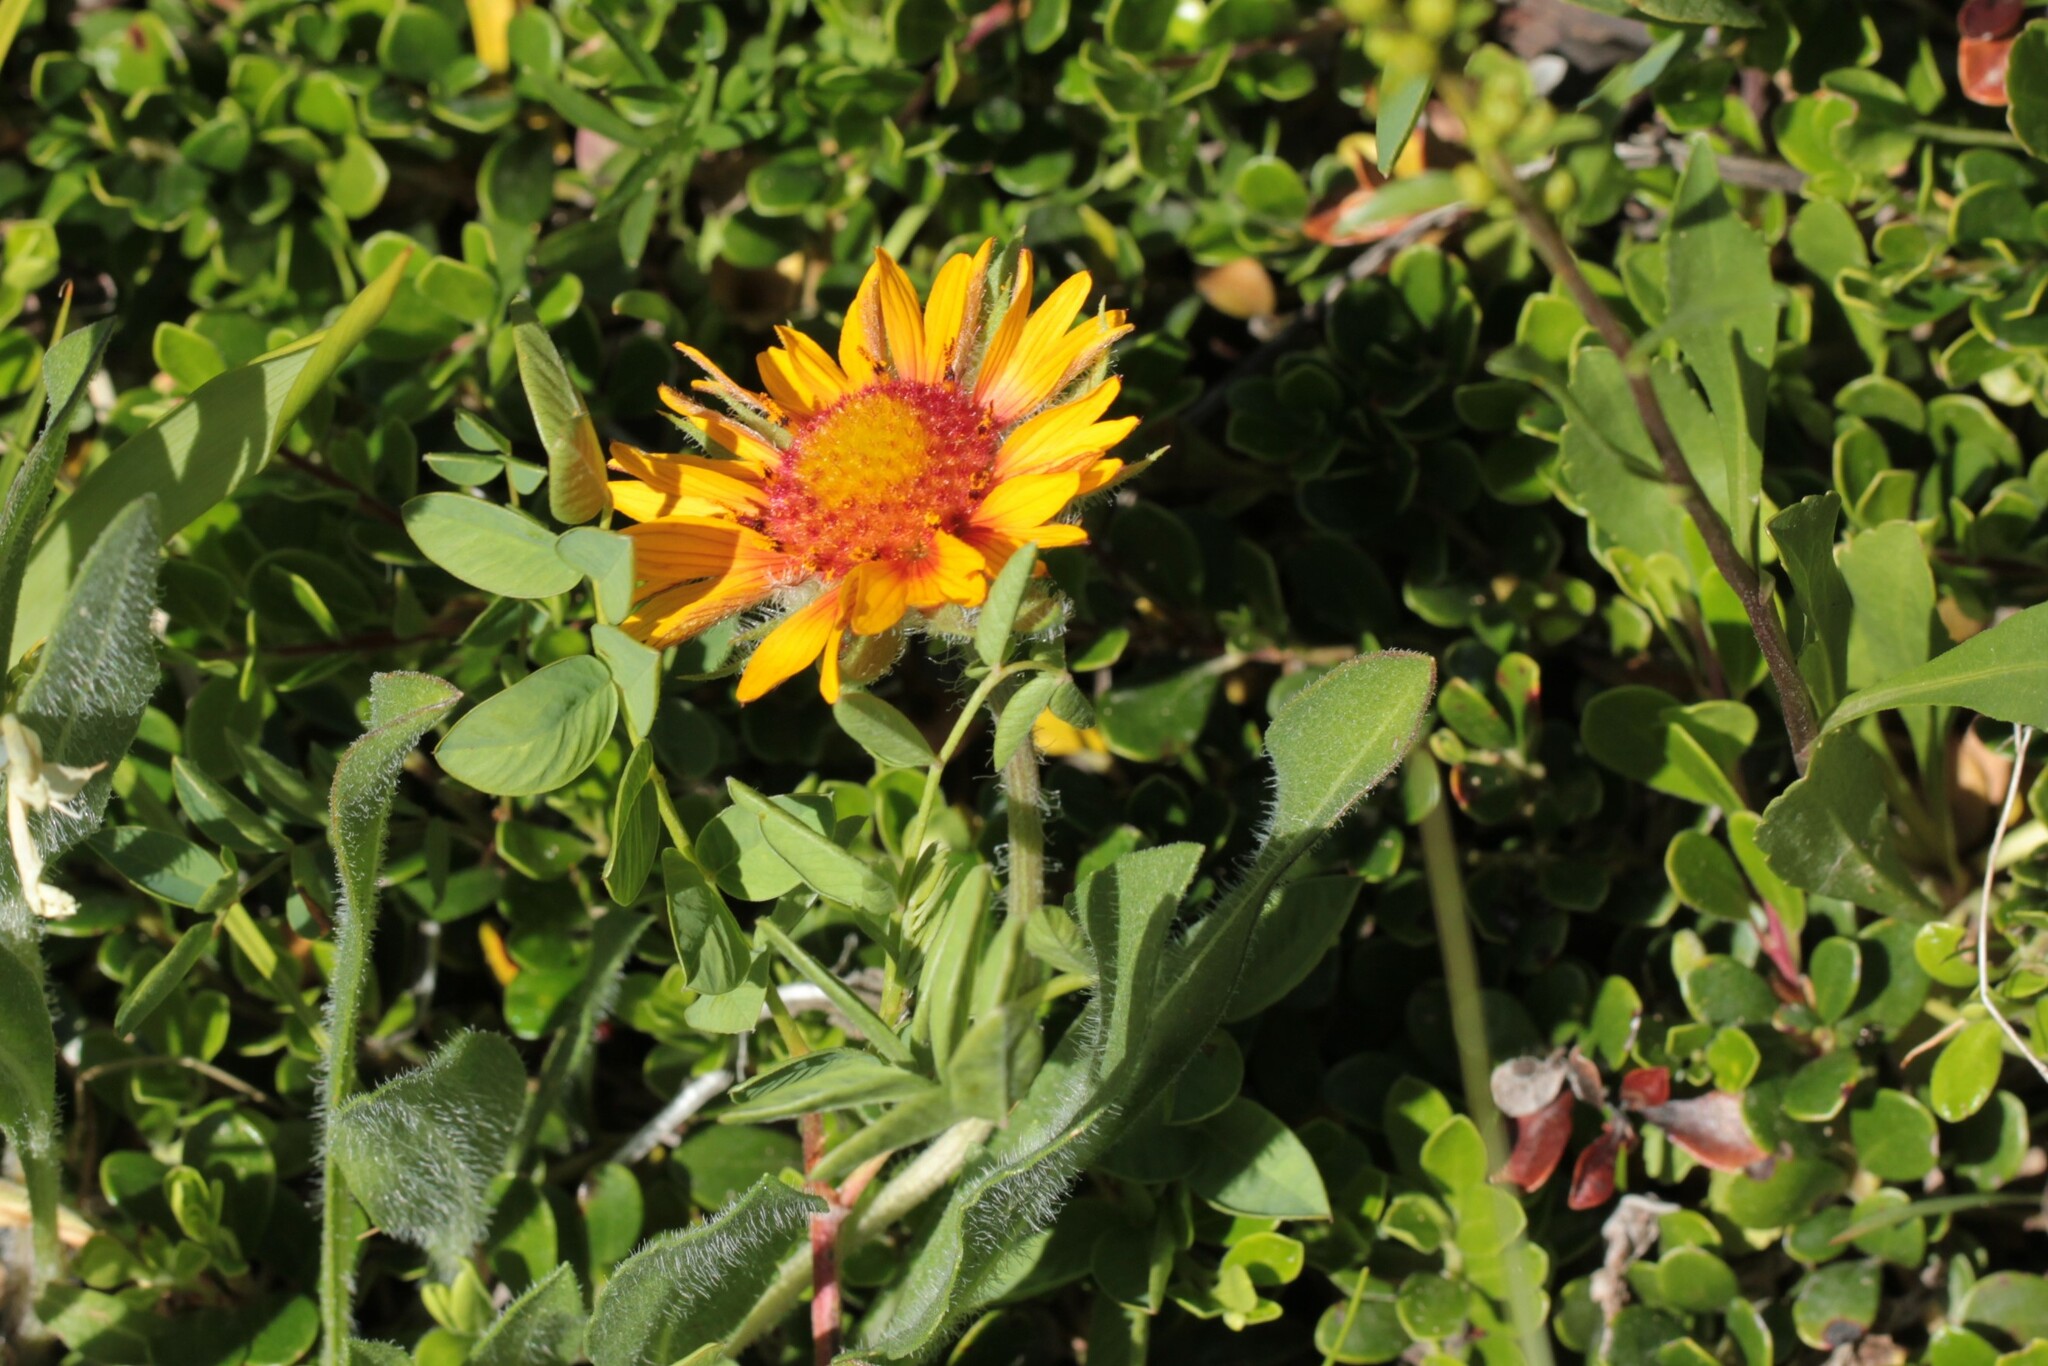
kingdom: Plantae
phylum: Tracheophyta
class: Magnoliopsida
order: Asterales
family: Asteraceae
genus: Gaillardia
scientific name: Gaillardia aristata
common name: Blanket-flower
